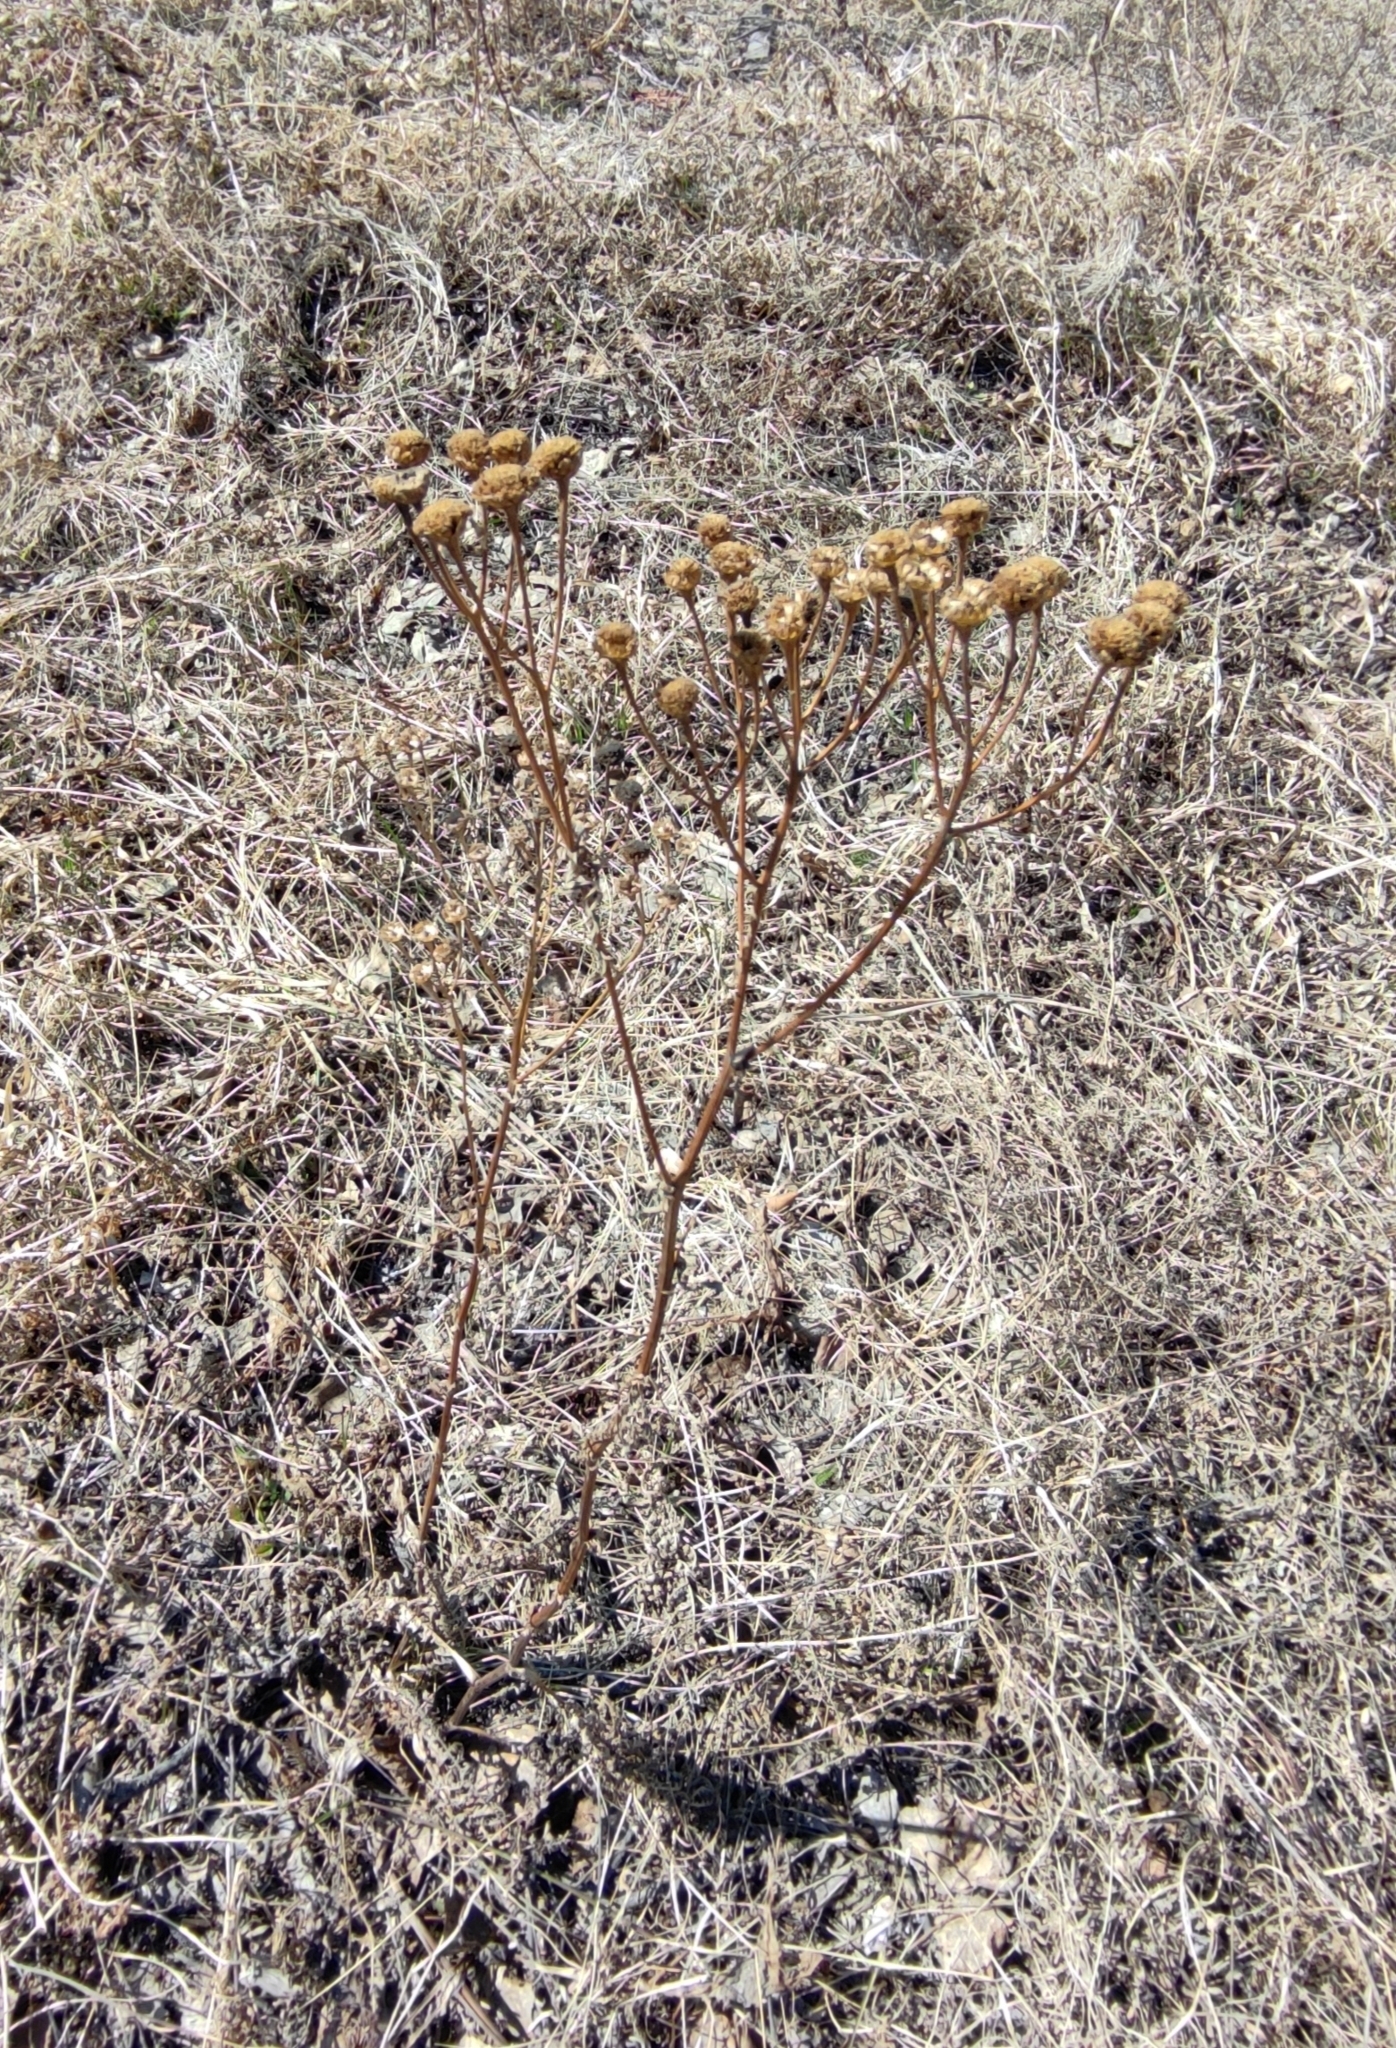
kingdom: Plantae
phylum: Tracheophyta
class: Magnoliopsida
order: Asterales
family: Asteraceae
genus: Tanacetum
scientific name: Tanacetum vulgare
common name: Common tansy
